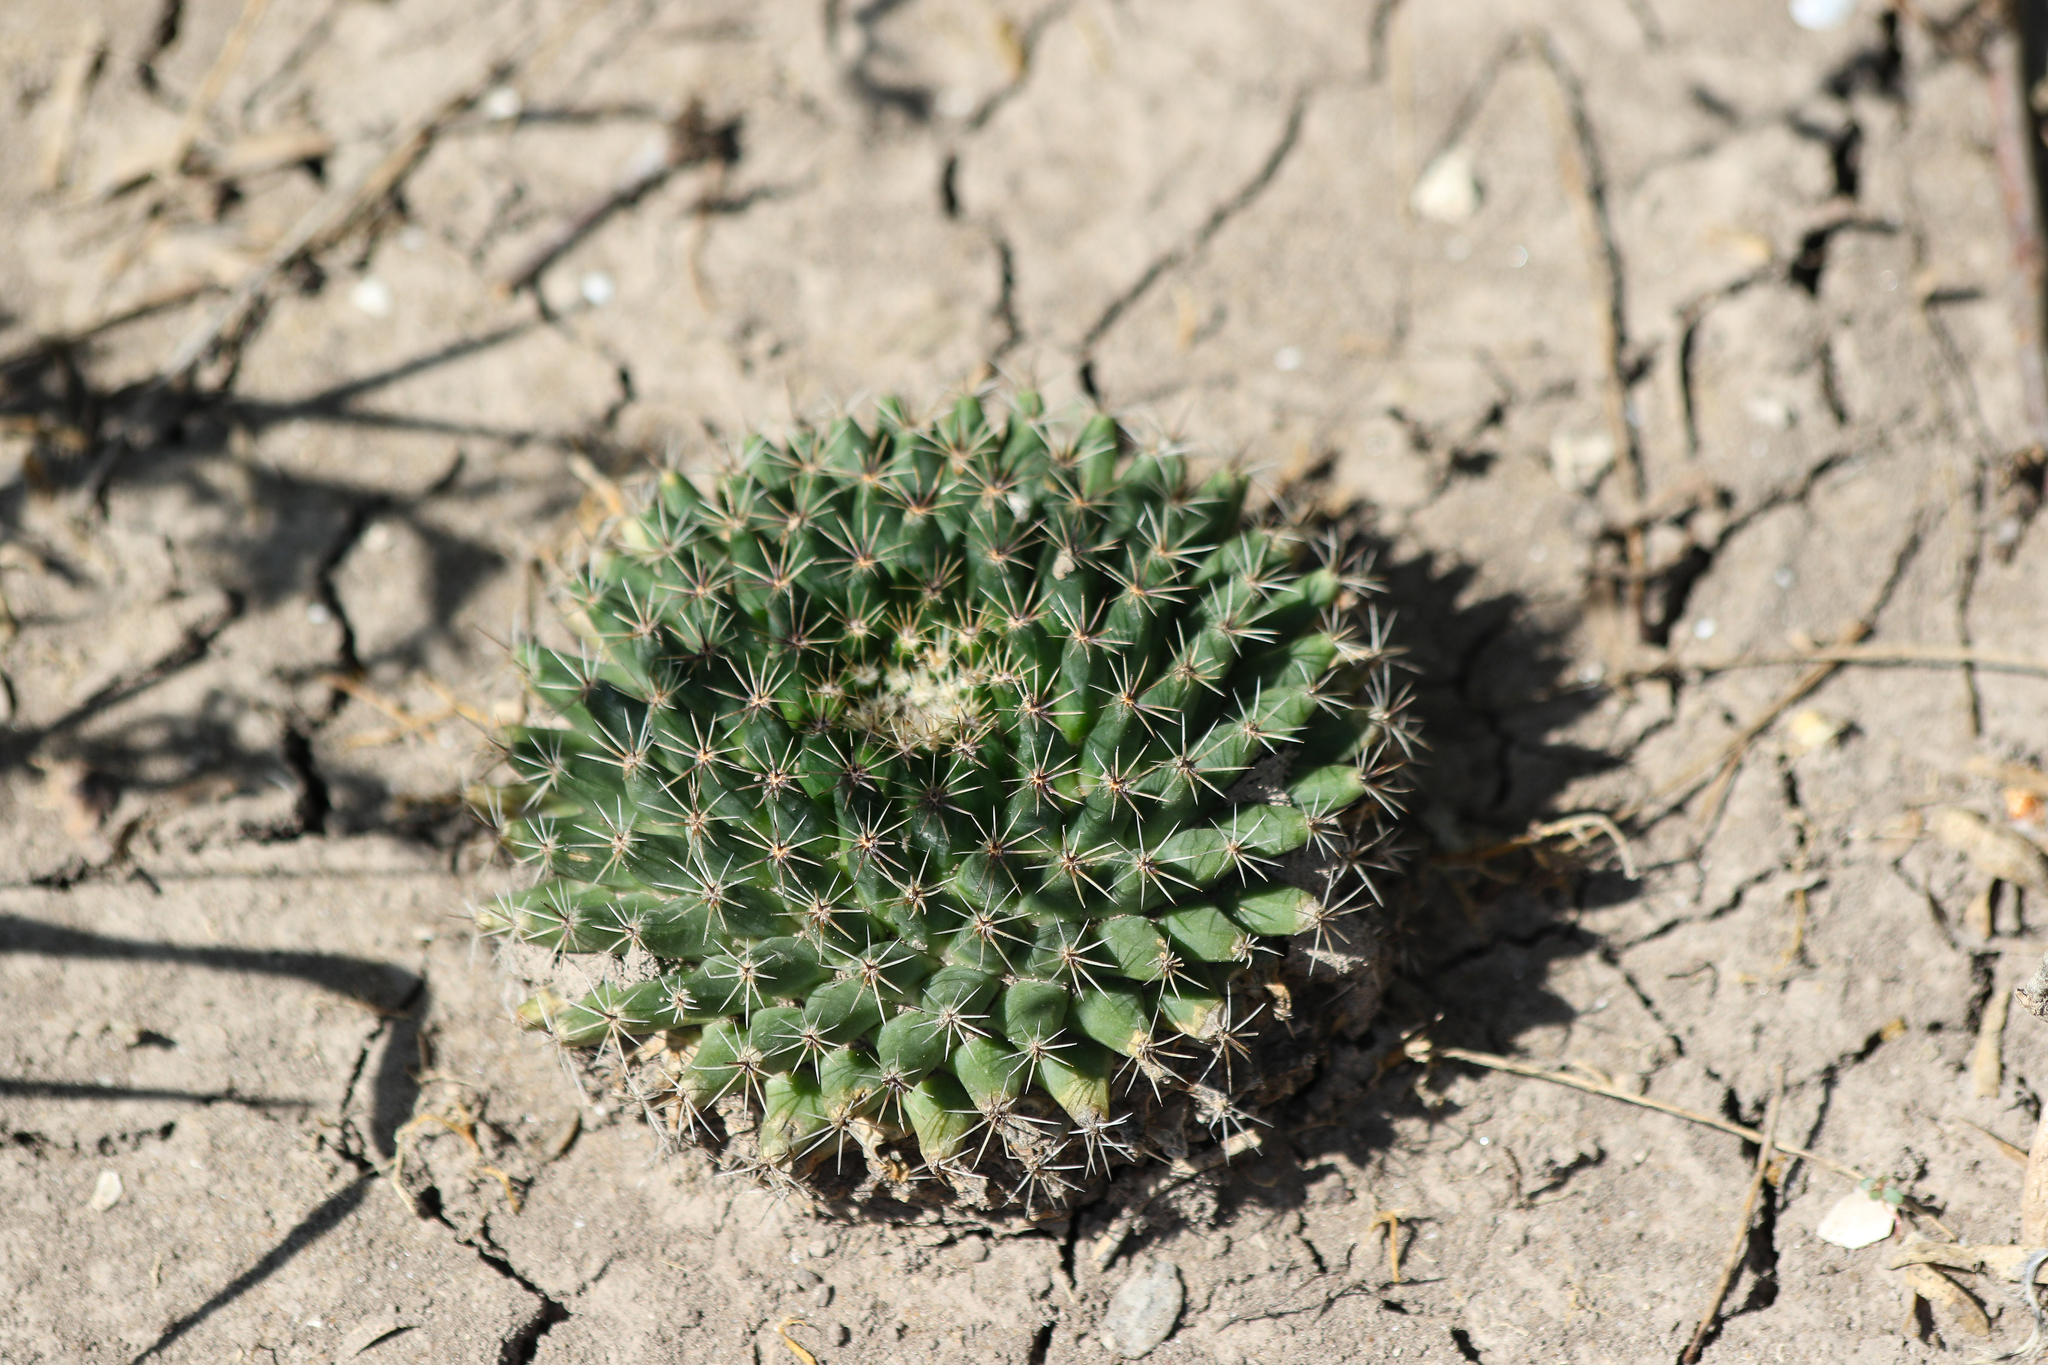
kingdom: Plantae
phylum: Tracheophyta
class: Magnoliopsida
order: Caryophyllales
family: Cactaceae
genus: Mammillaria
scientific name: Mammillaria heyderi
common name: Little nipple cactus
